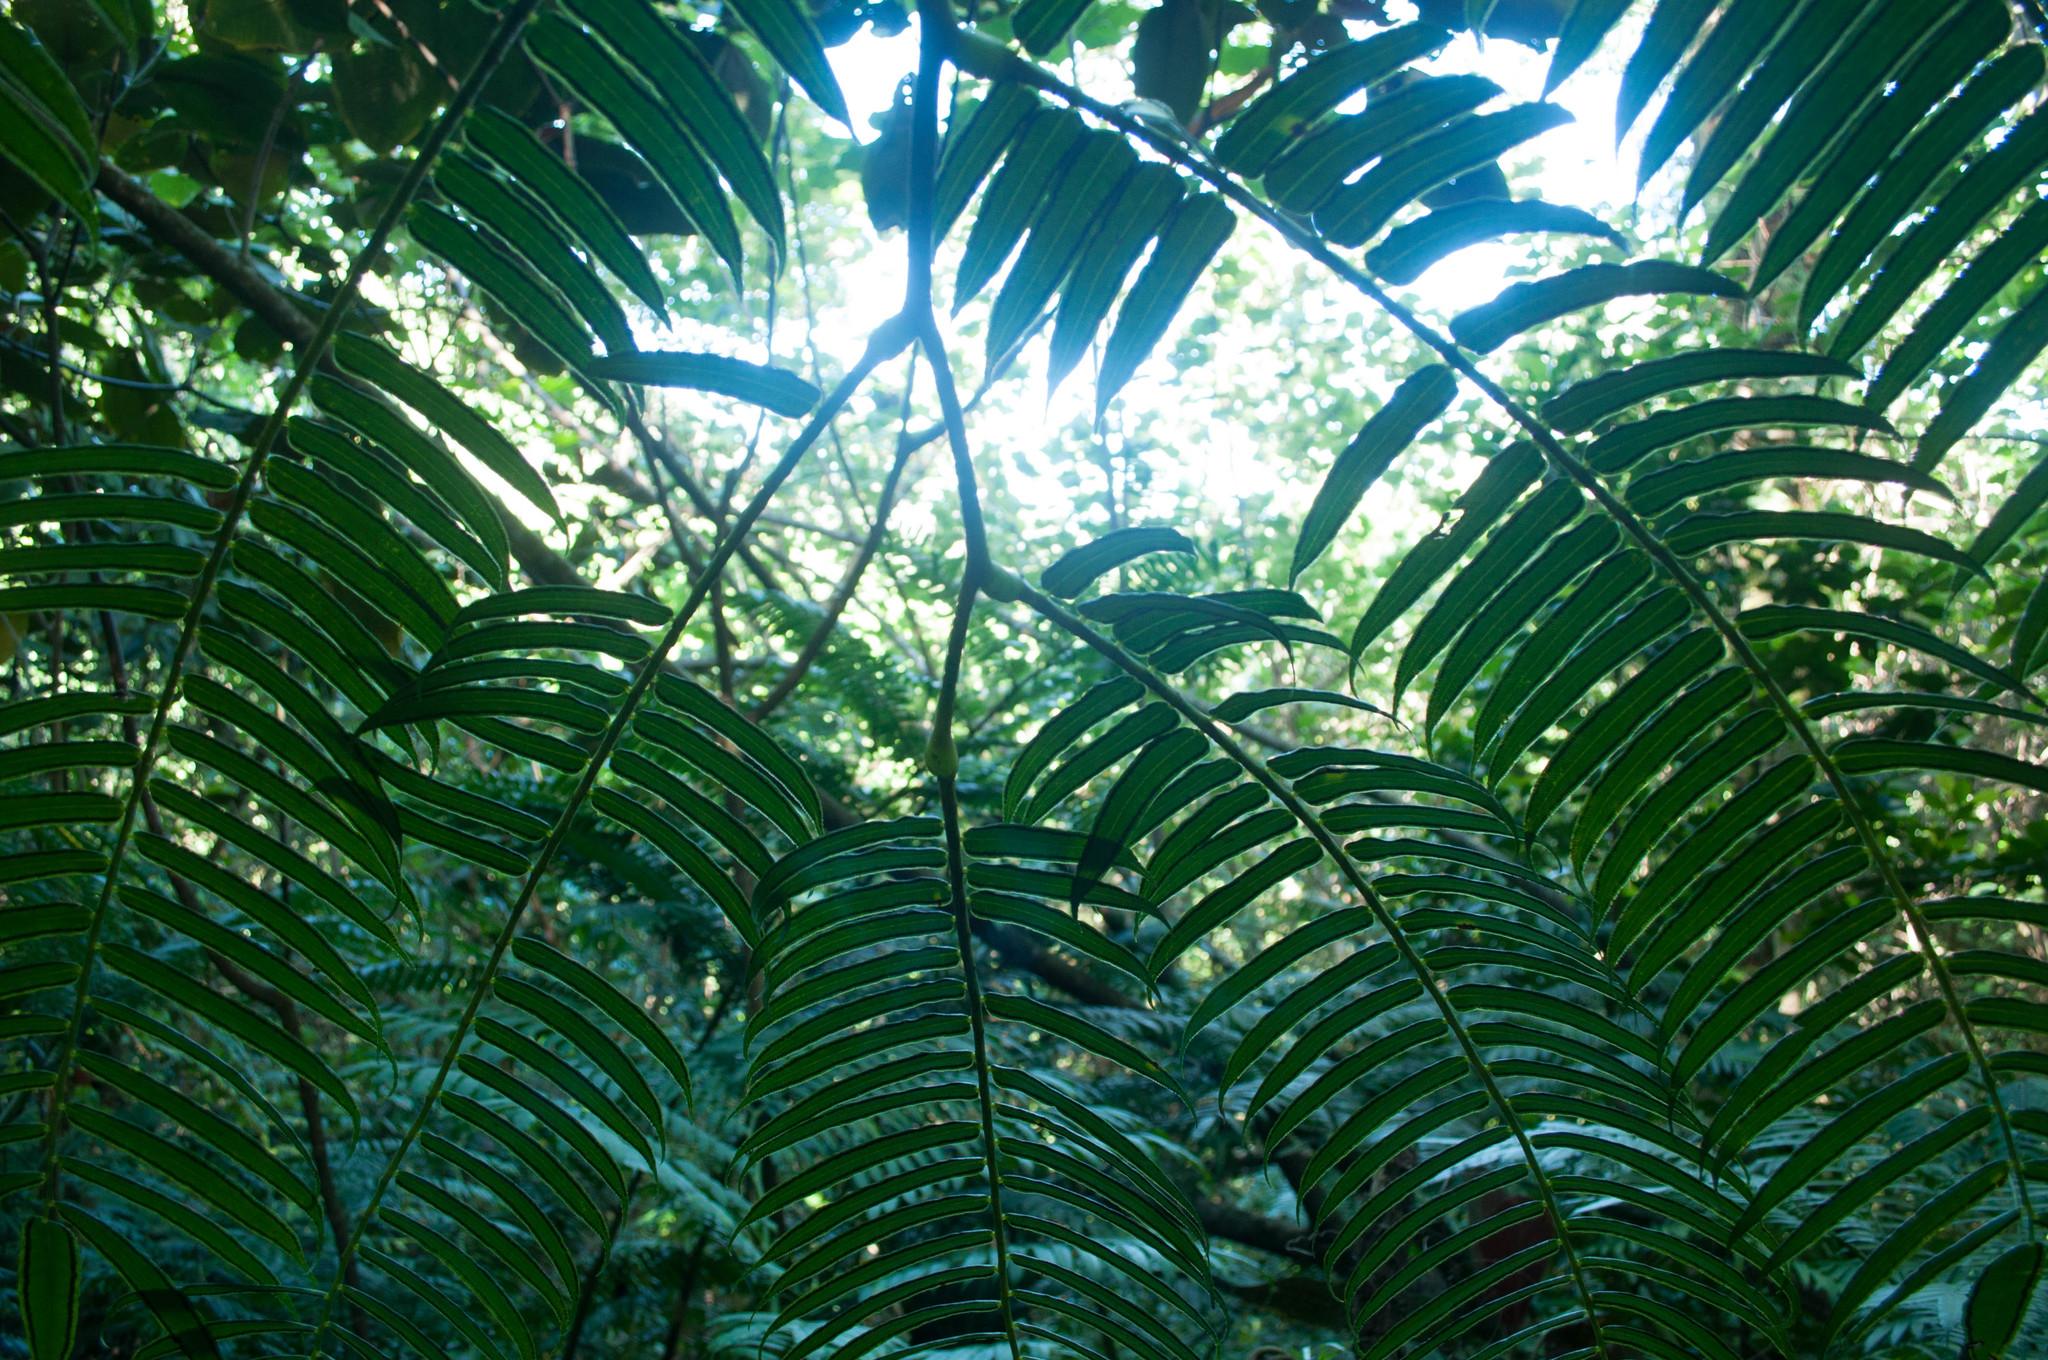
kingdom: Plantae
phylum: Tracheophyta
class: Polypodiopsida
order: Marattiales
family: Marattiaceae
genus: Angiopteris
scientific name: Angiopteris evecta
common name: Mule's-foot fern
